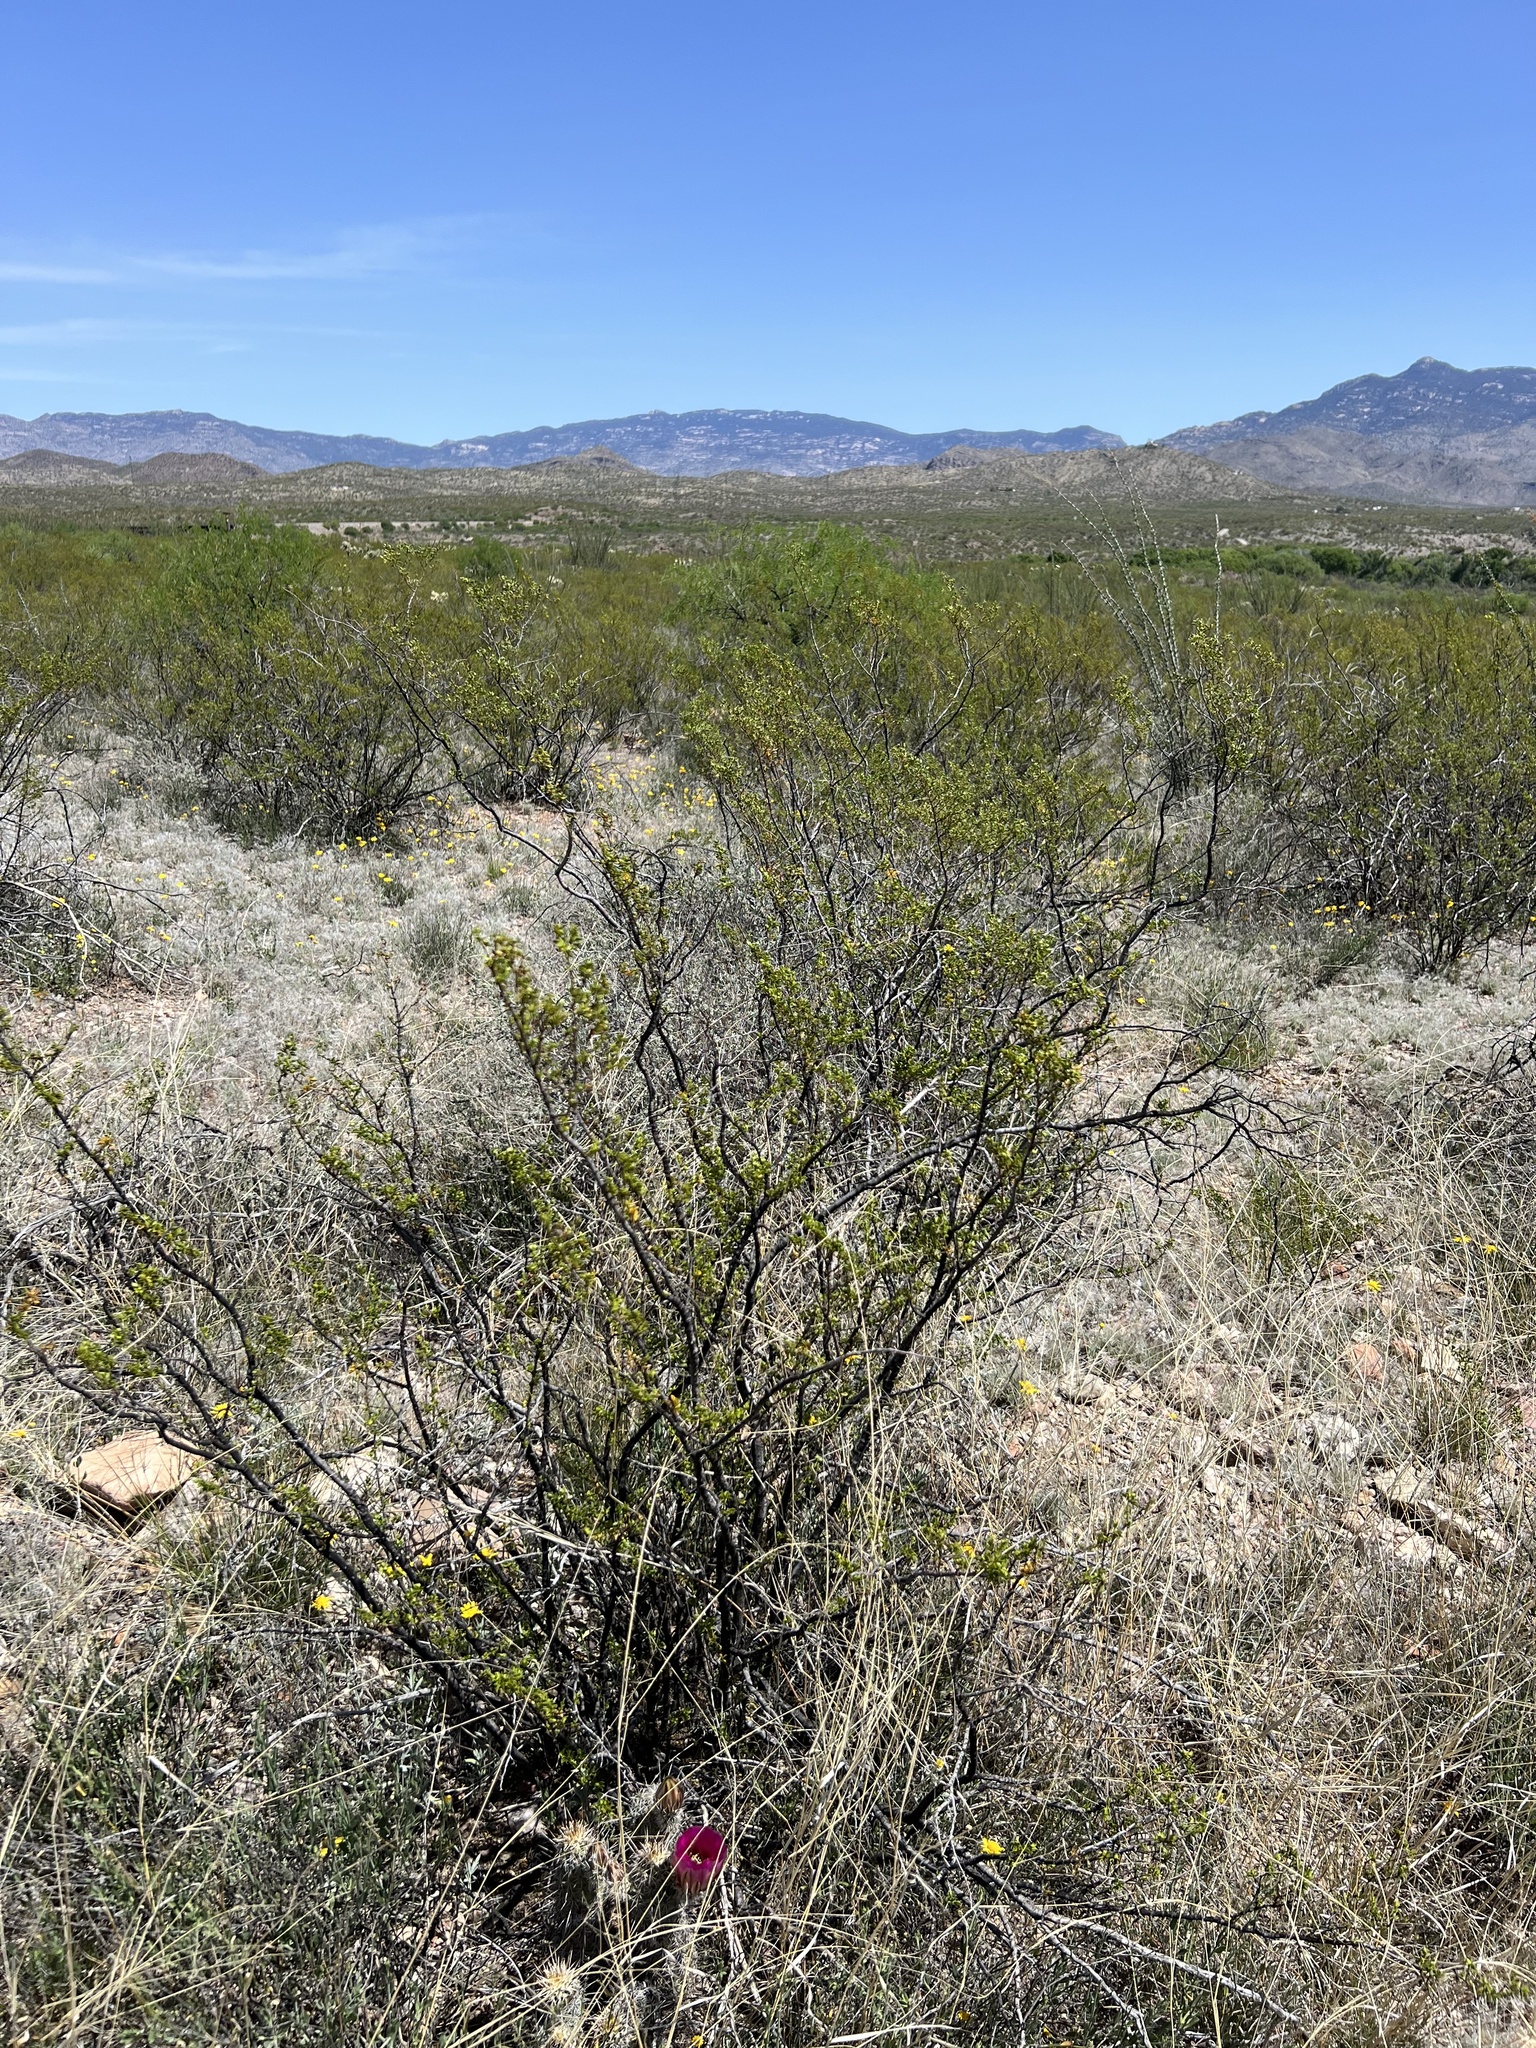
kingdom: Plantae
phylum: Tracheophyta
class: Magnoliopsida
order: Zygophyllales
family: Zygophyllaceae
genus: Larrea
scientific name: Larrea tridentata
